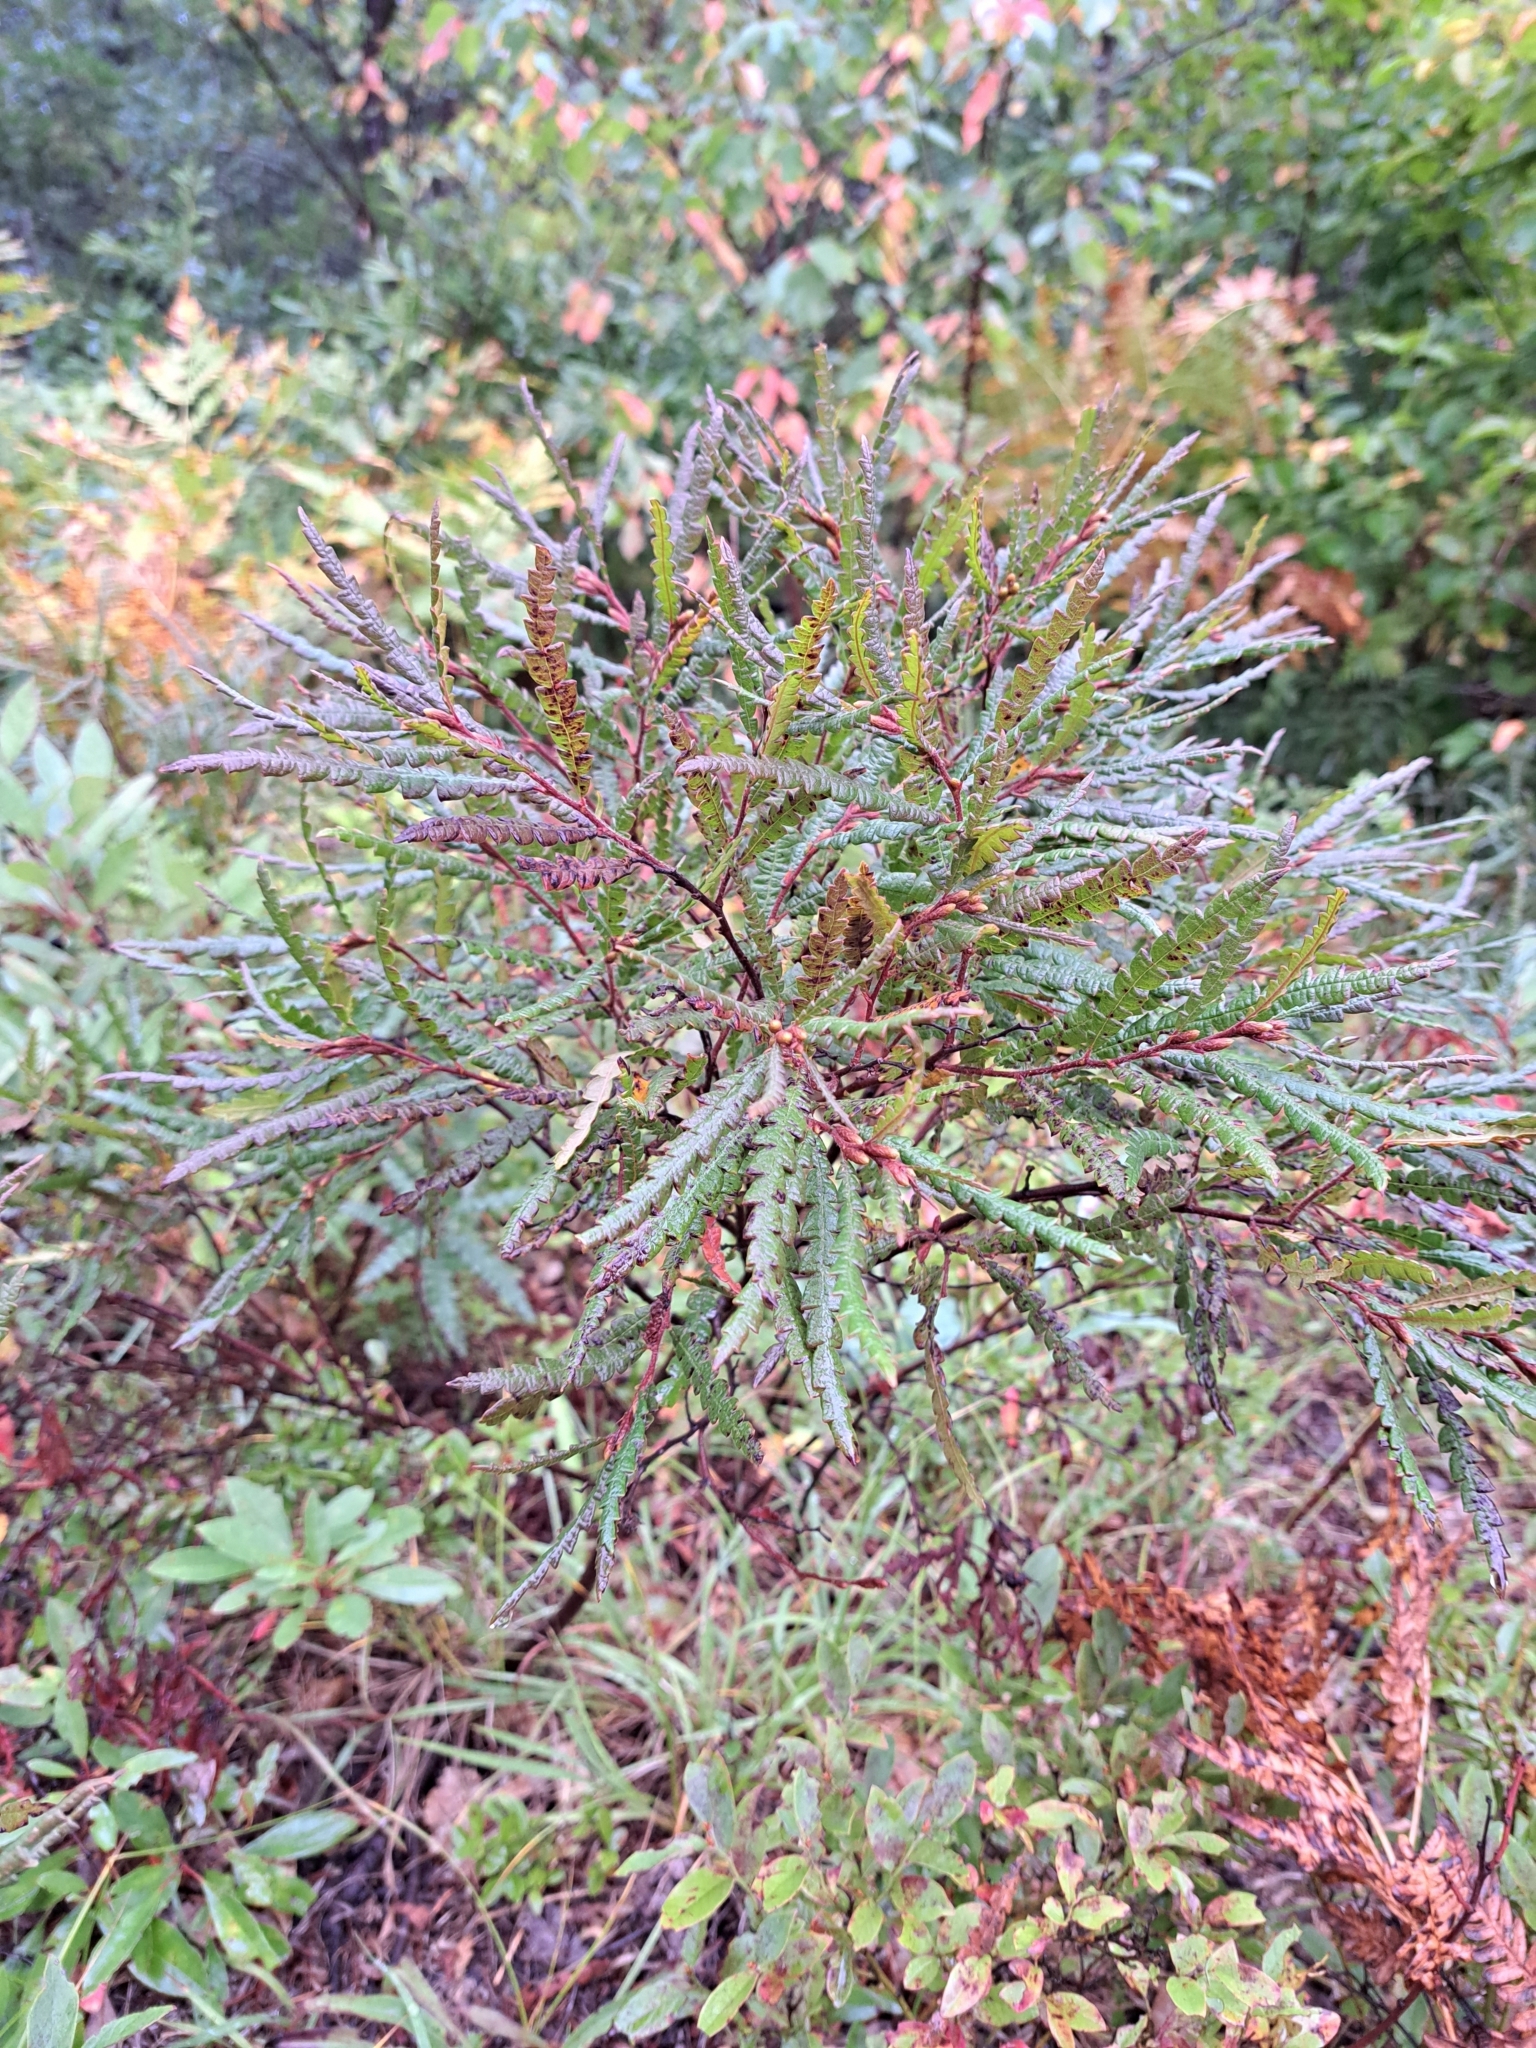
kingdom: Plantae
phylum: Tracheophyta
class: Magnoliopsida
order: Fagales
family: Myricaceae
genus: Comptonia
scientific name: Comptonia peregrina
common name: Sweet-fern
